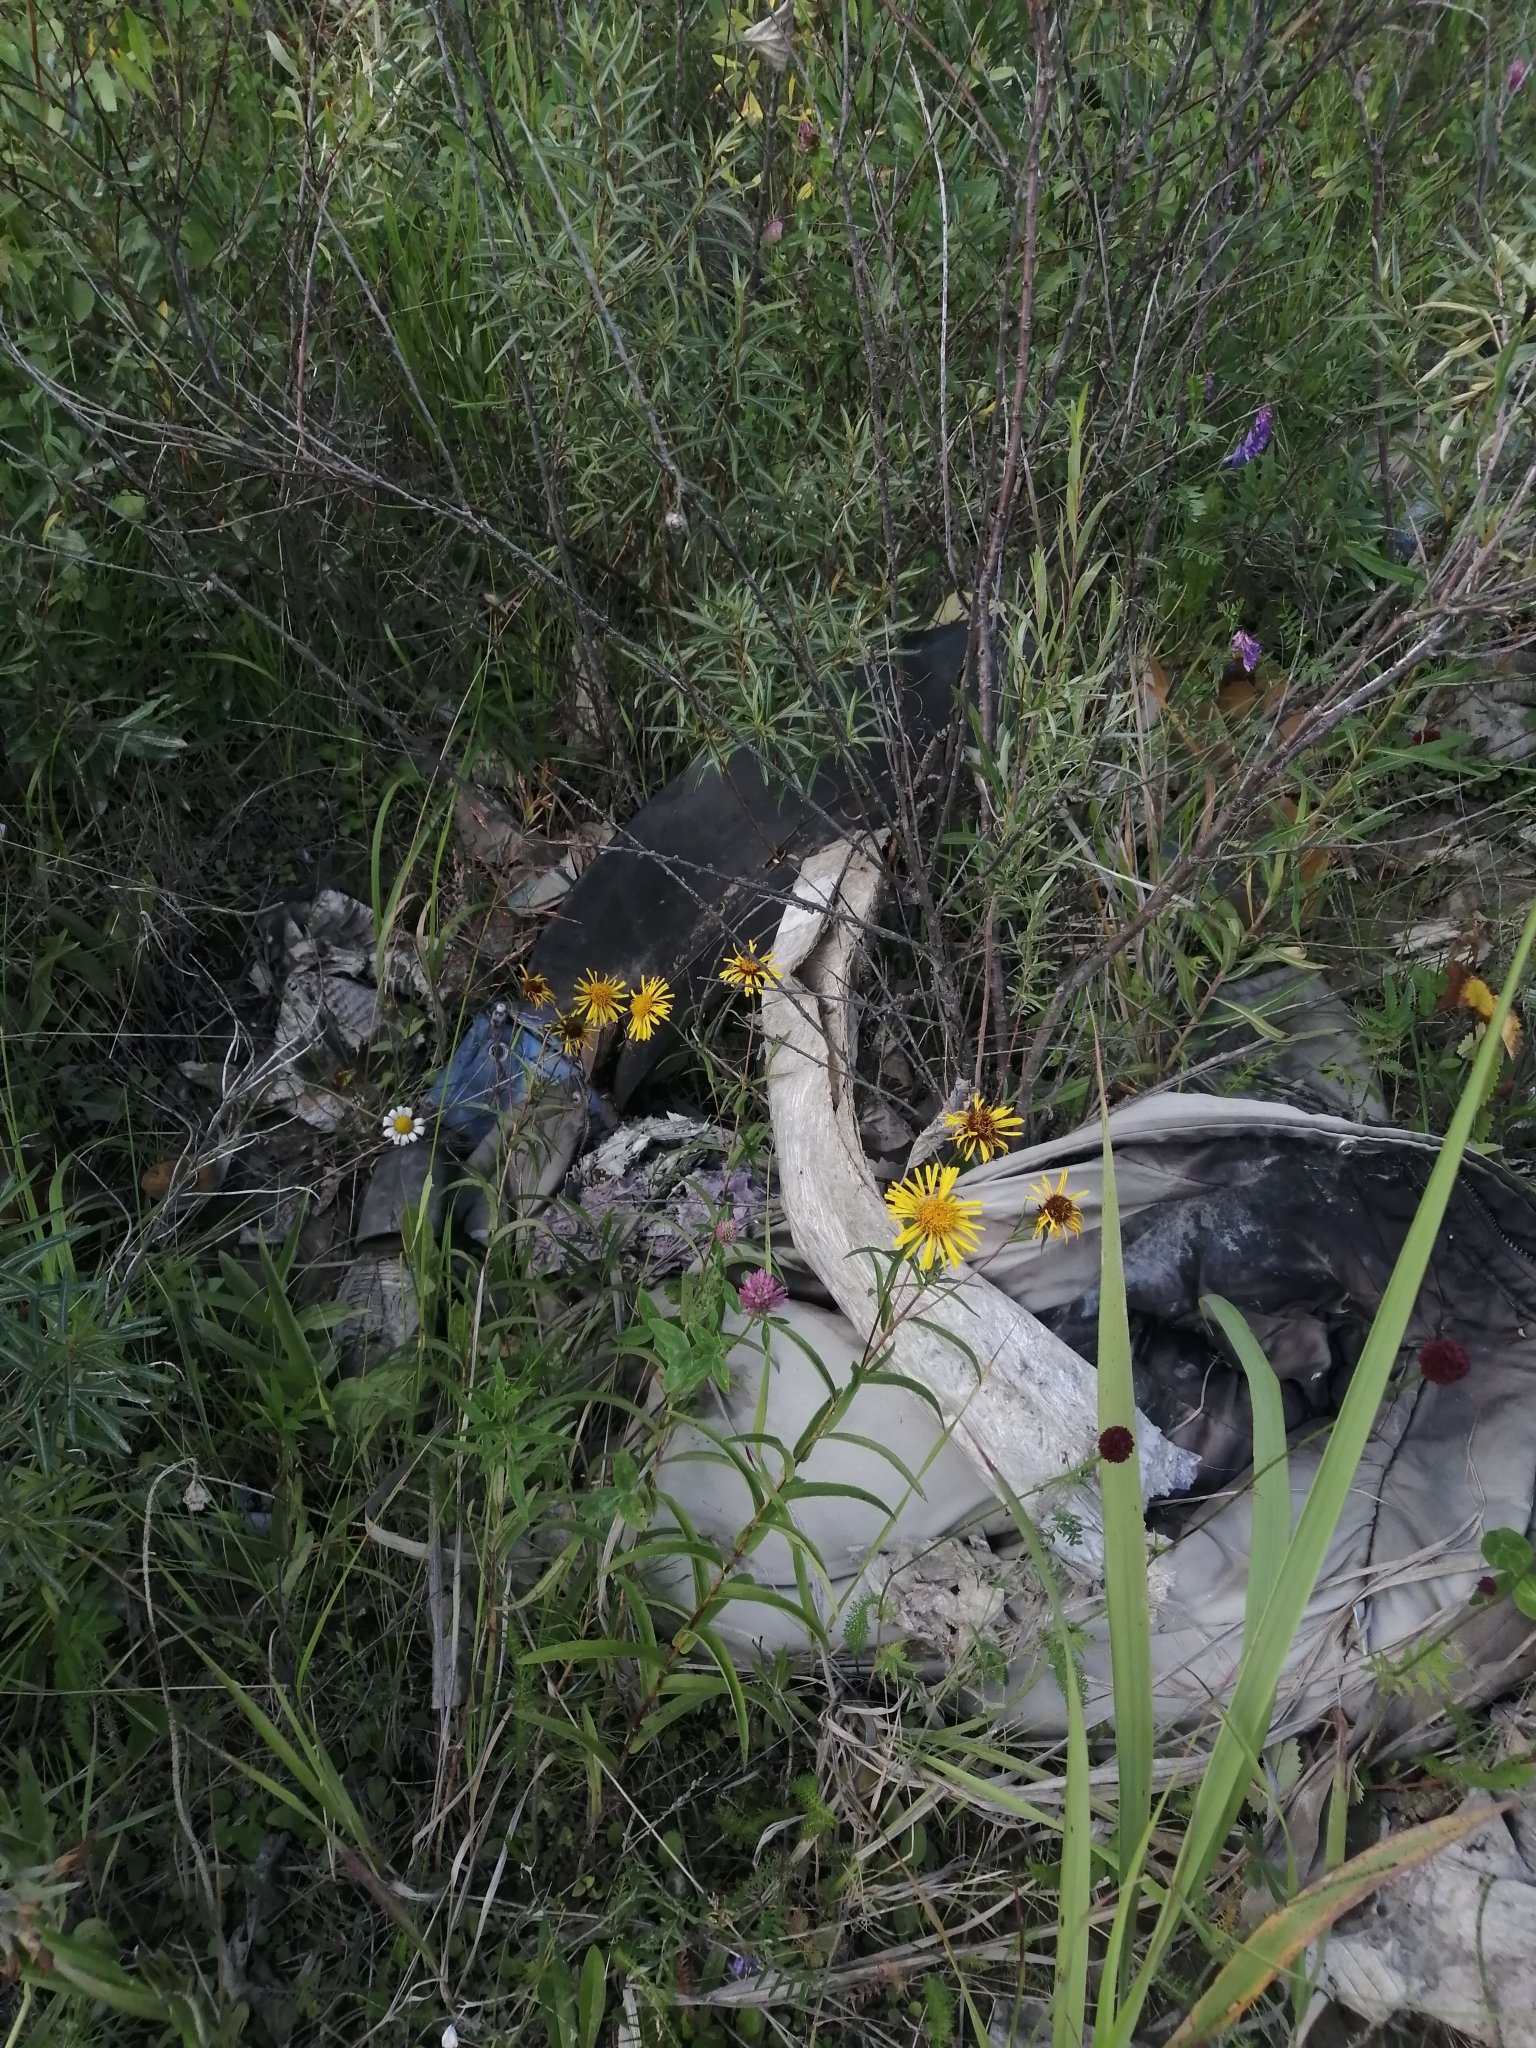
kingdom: Plantae
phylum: Tracheophyta
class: Magnoliopsida
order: Asterales
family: Asteraceae
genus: Pentanema
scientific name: Pentanema salicinum
